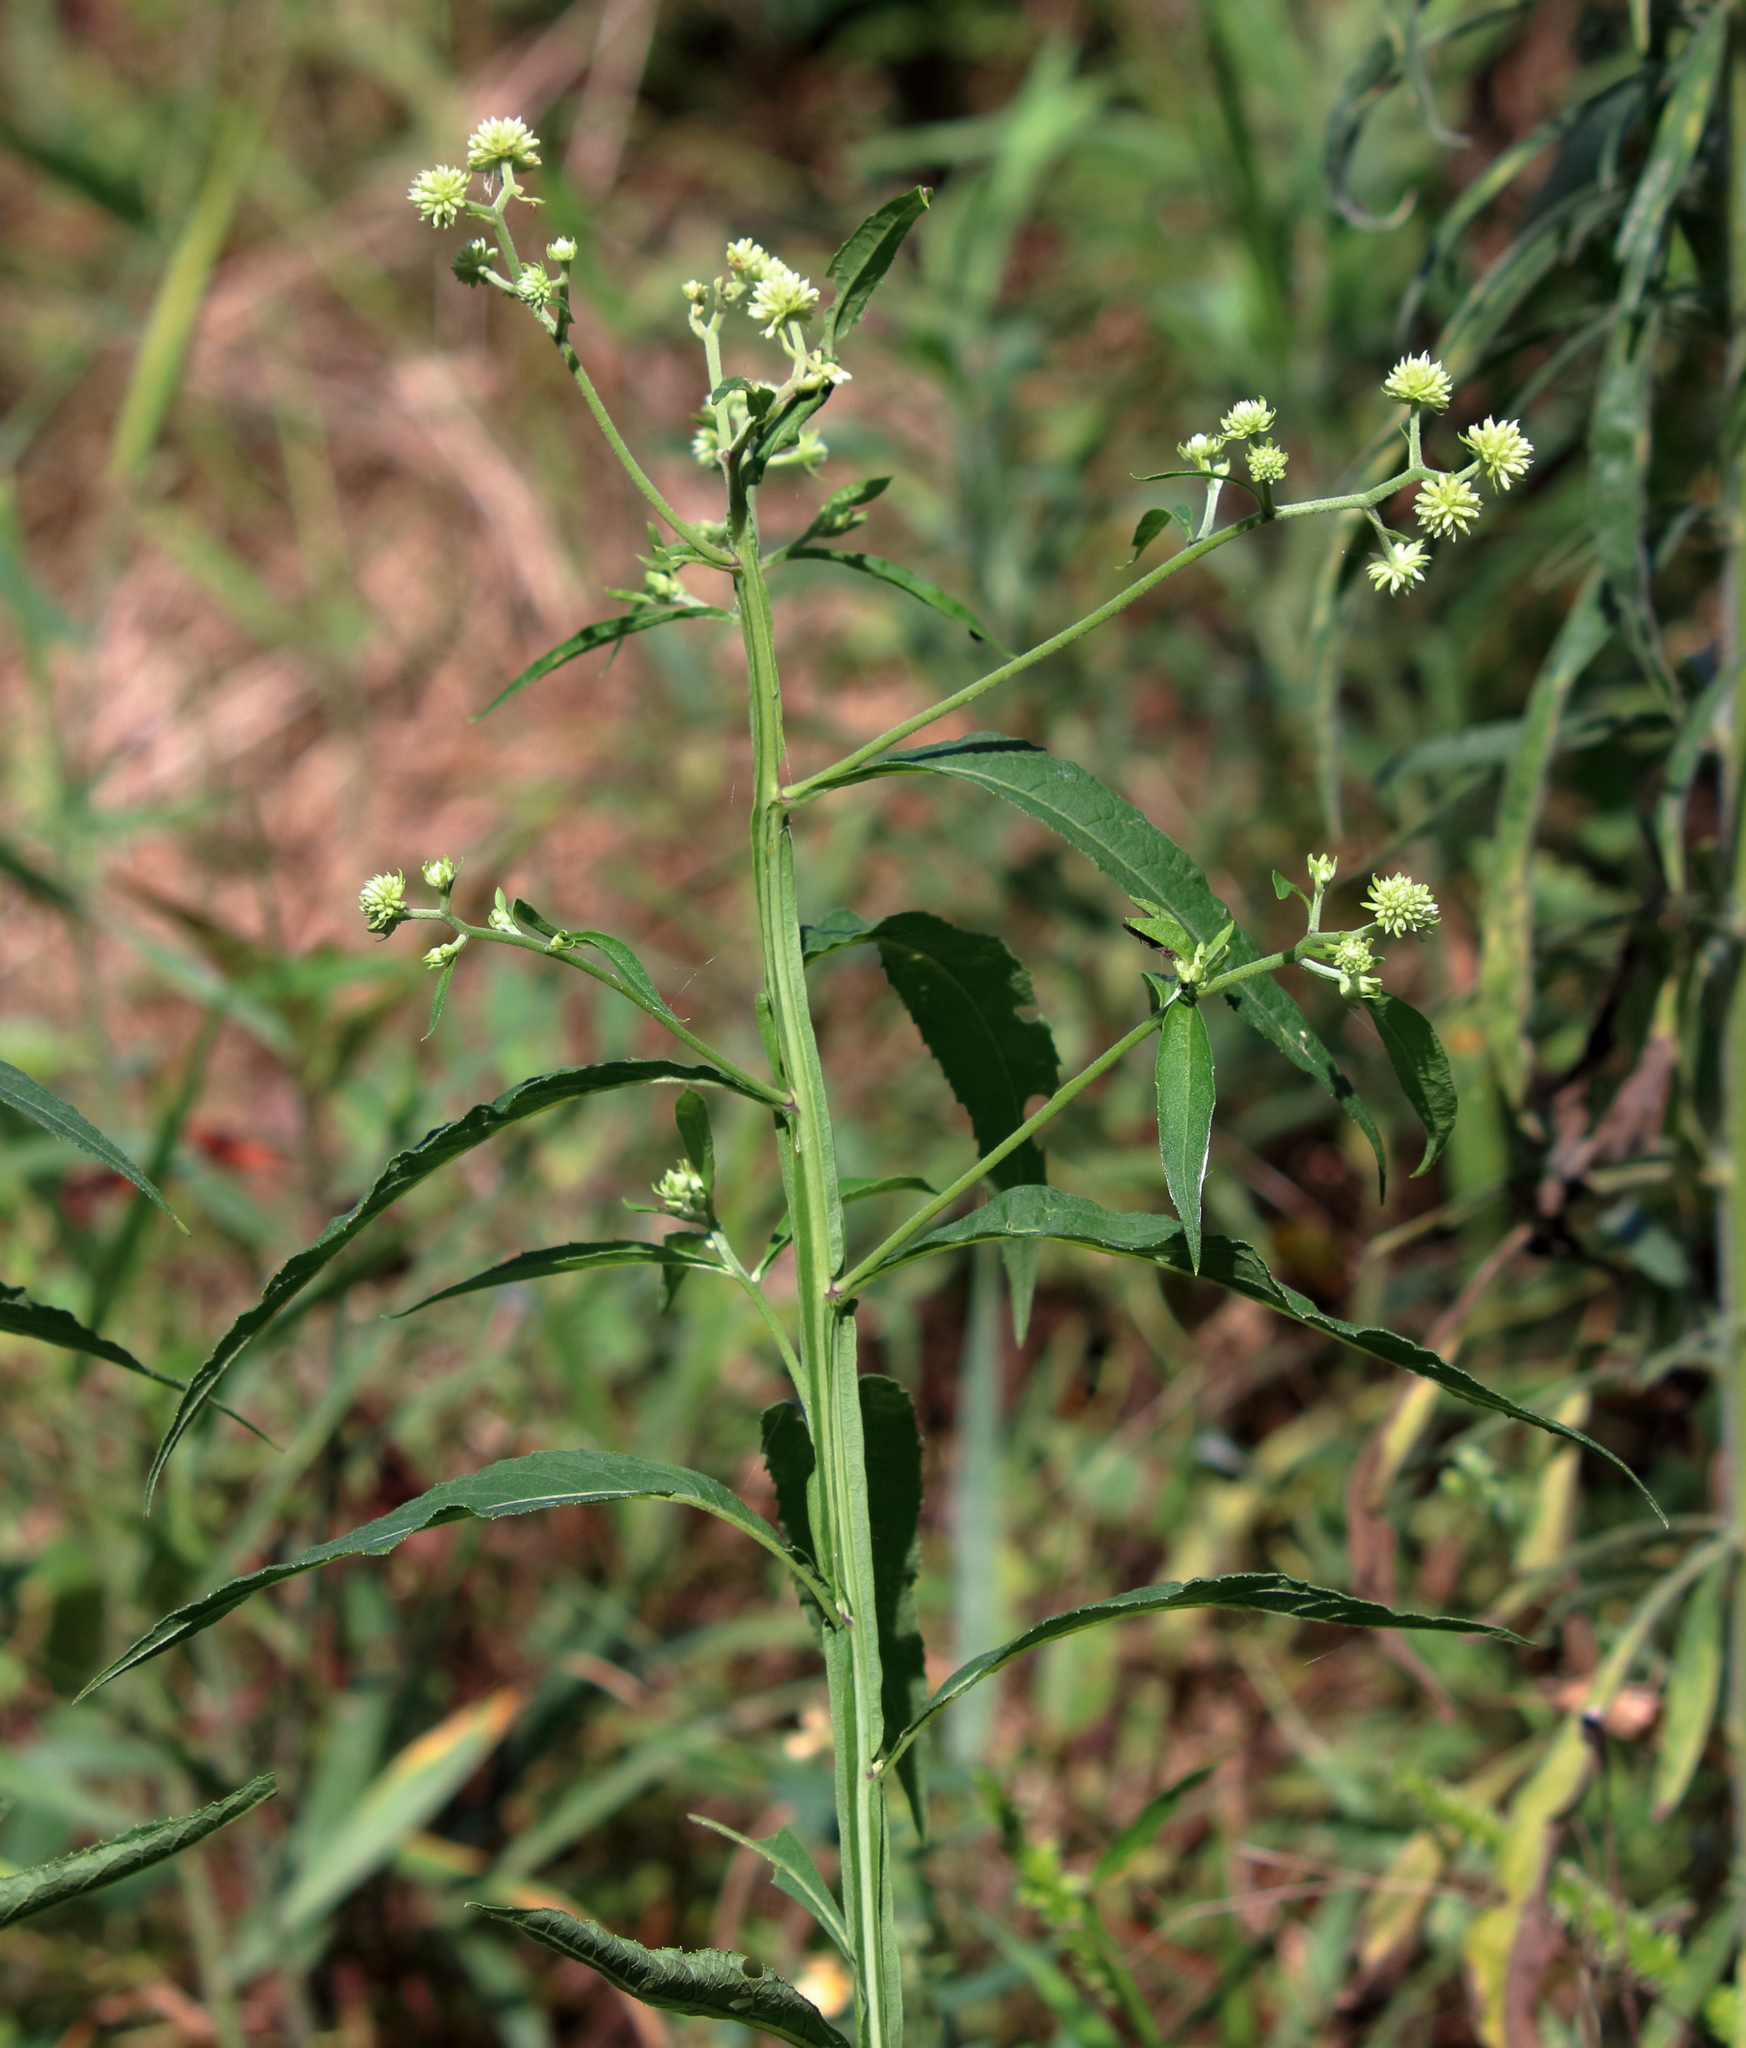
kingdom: Plantae
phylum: Tracheophyta
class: Magnoliopsida
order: Asterales
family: Asteraceae
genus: Verbesina
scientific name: Verbesina walteri
